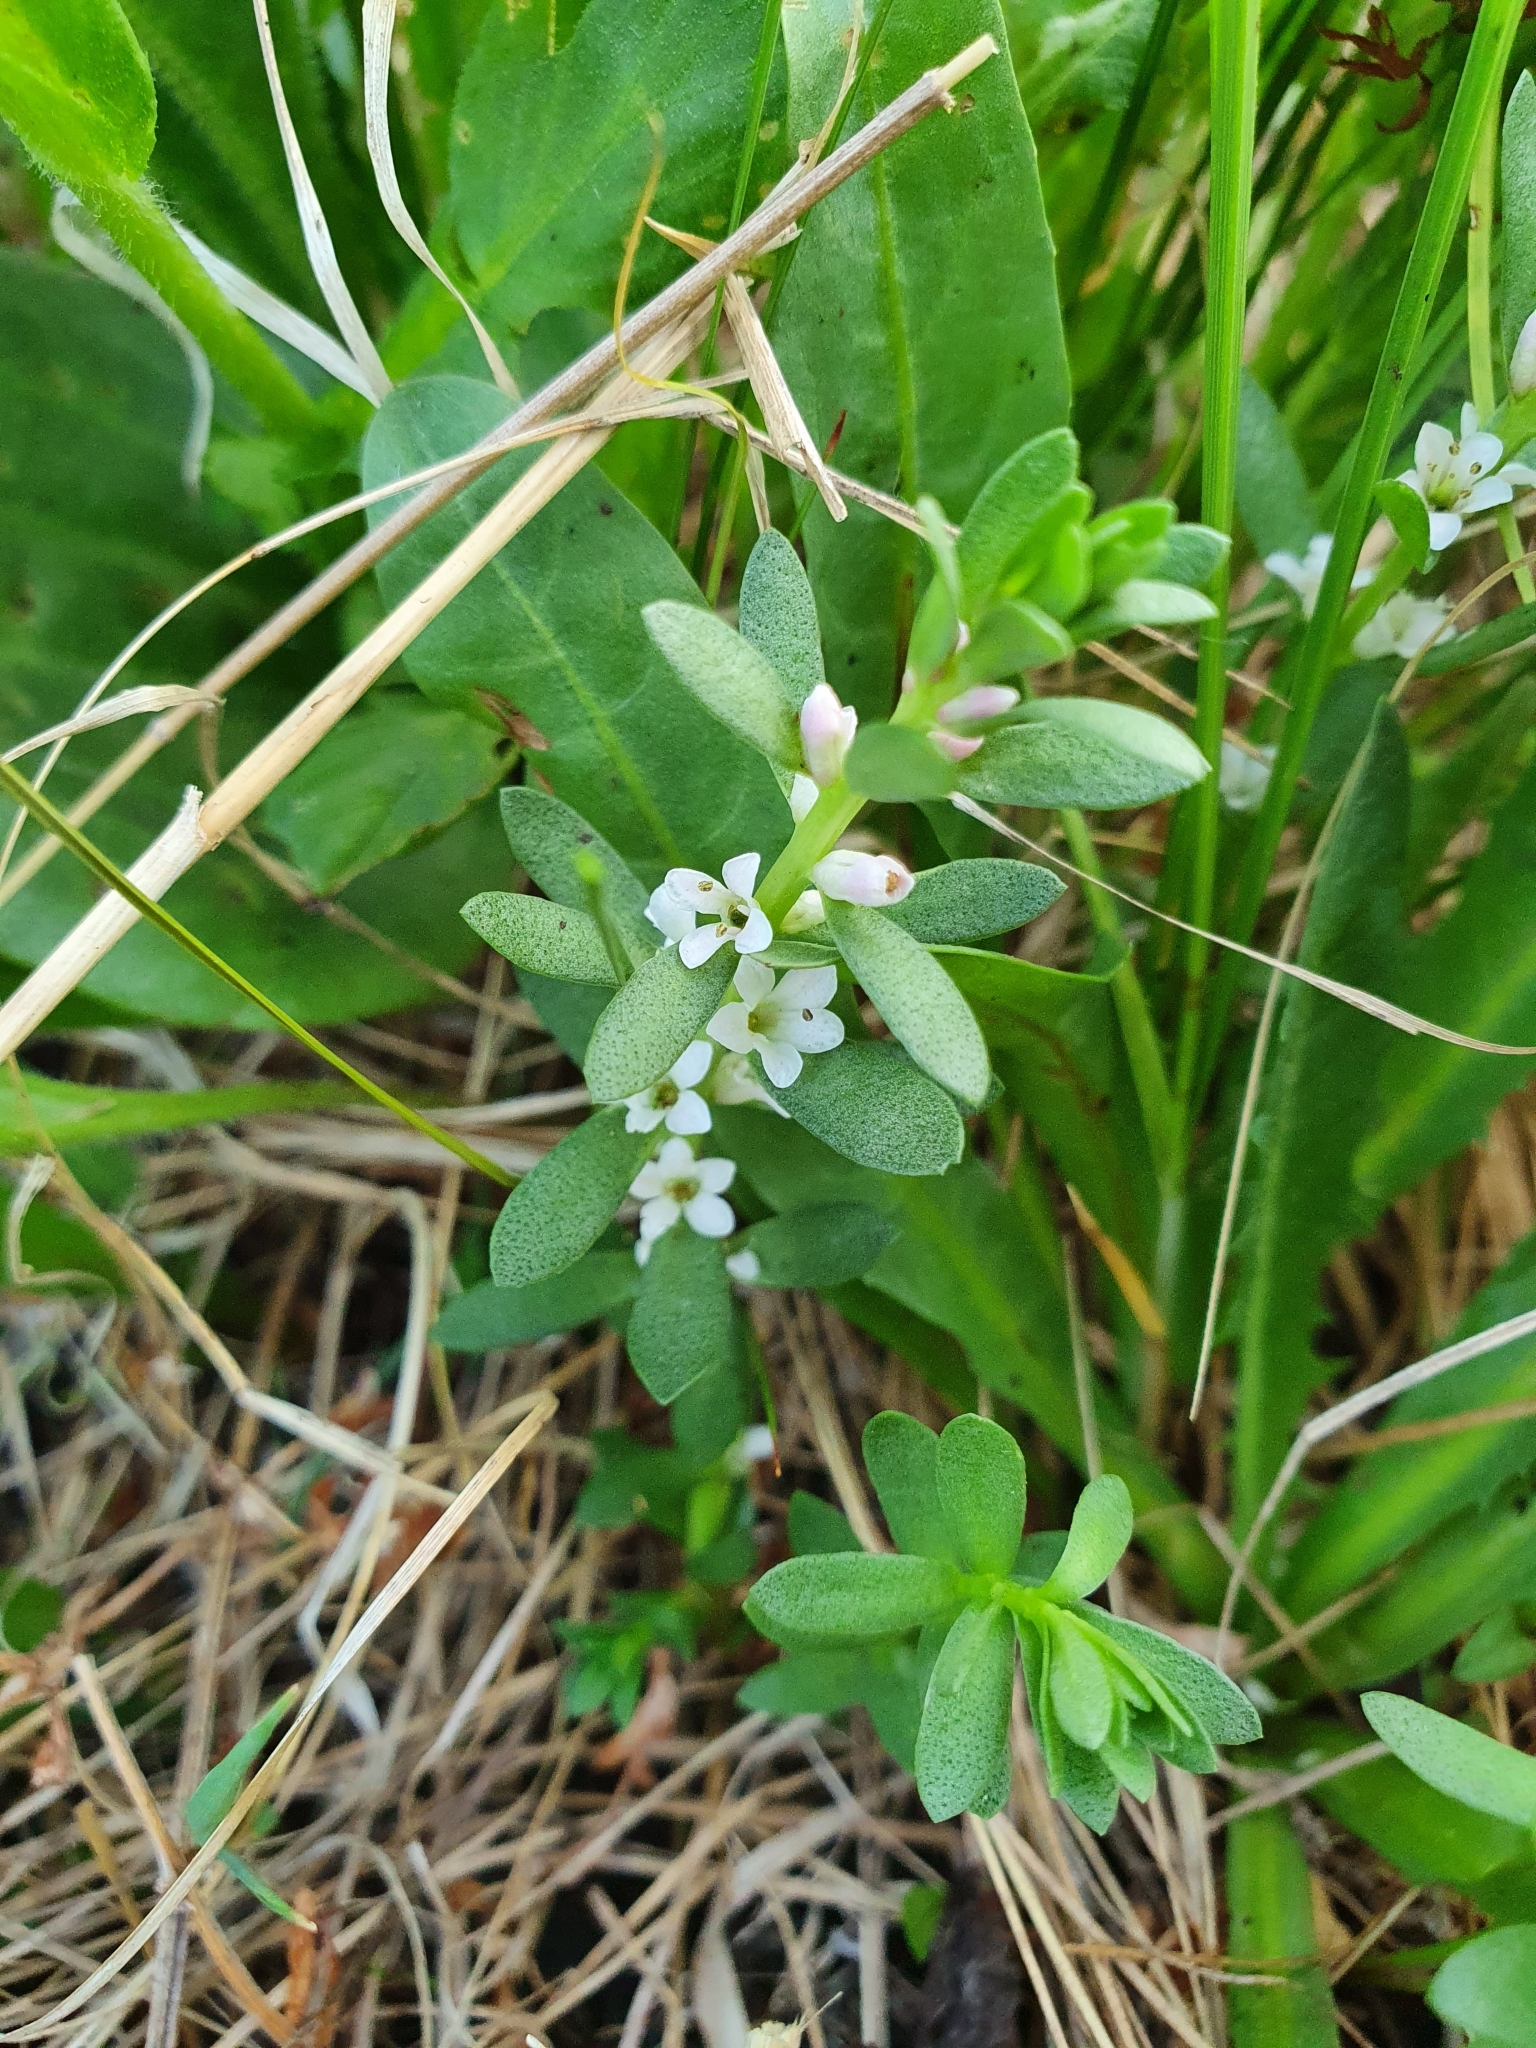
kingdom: Plantae
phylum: Tracheophyta
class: Magnoliopsida
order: Ericales
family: Primulaceae
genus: Lysimachia
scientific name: Lysimachia maritima
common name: Sea milkwort
